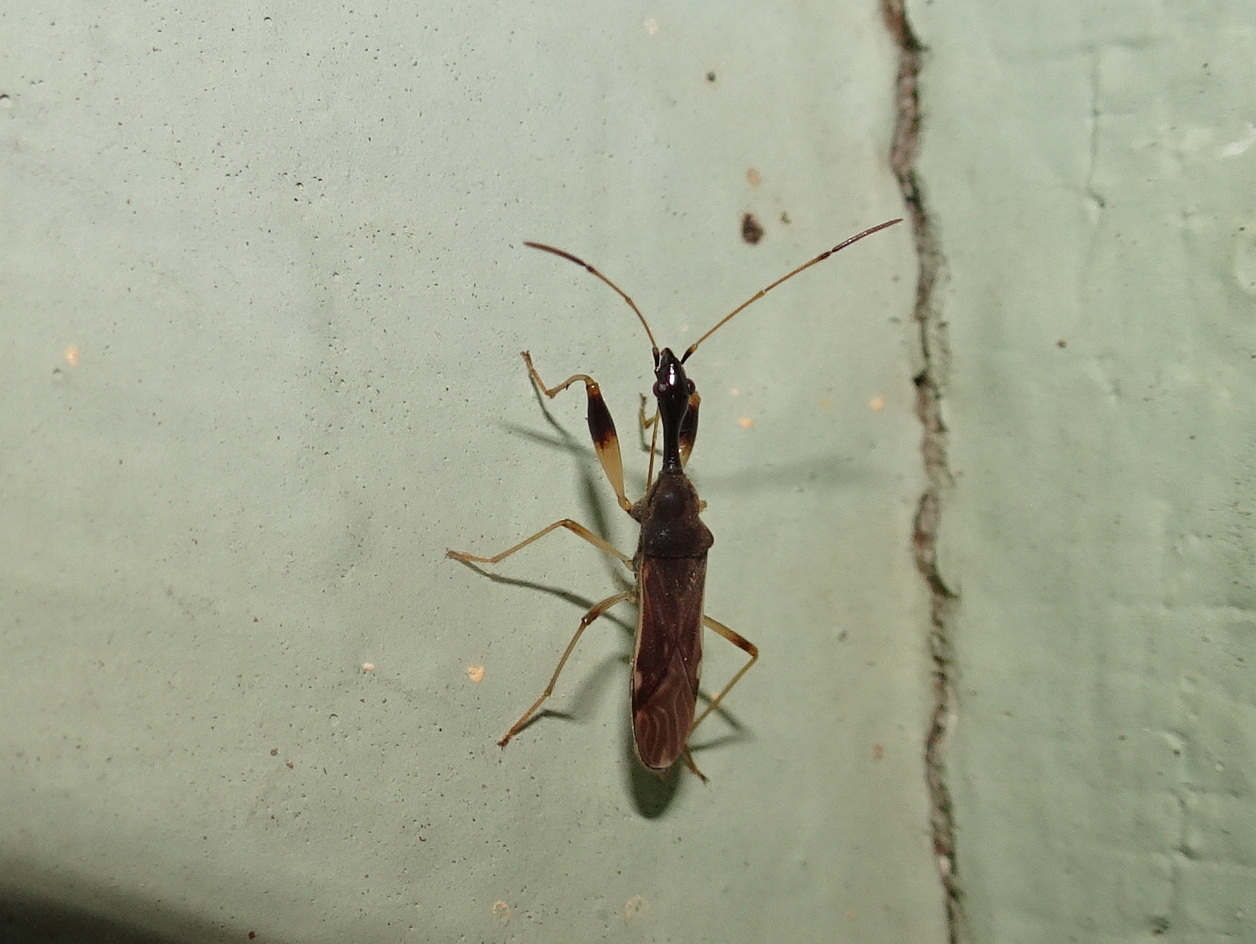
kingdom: Animalia
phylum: Arthropoda
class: Insecta
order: Hemiptera
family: Rhyparochromidae
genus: Myodocha
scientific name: Myodocha serripes
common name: Long-necked seed bug
